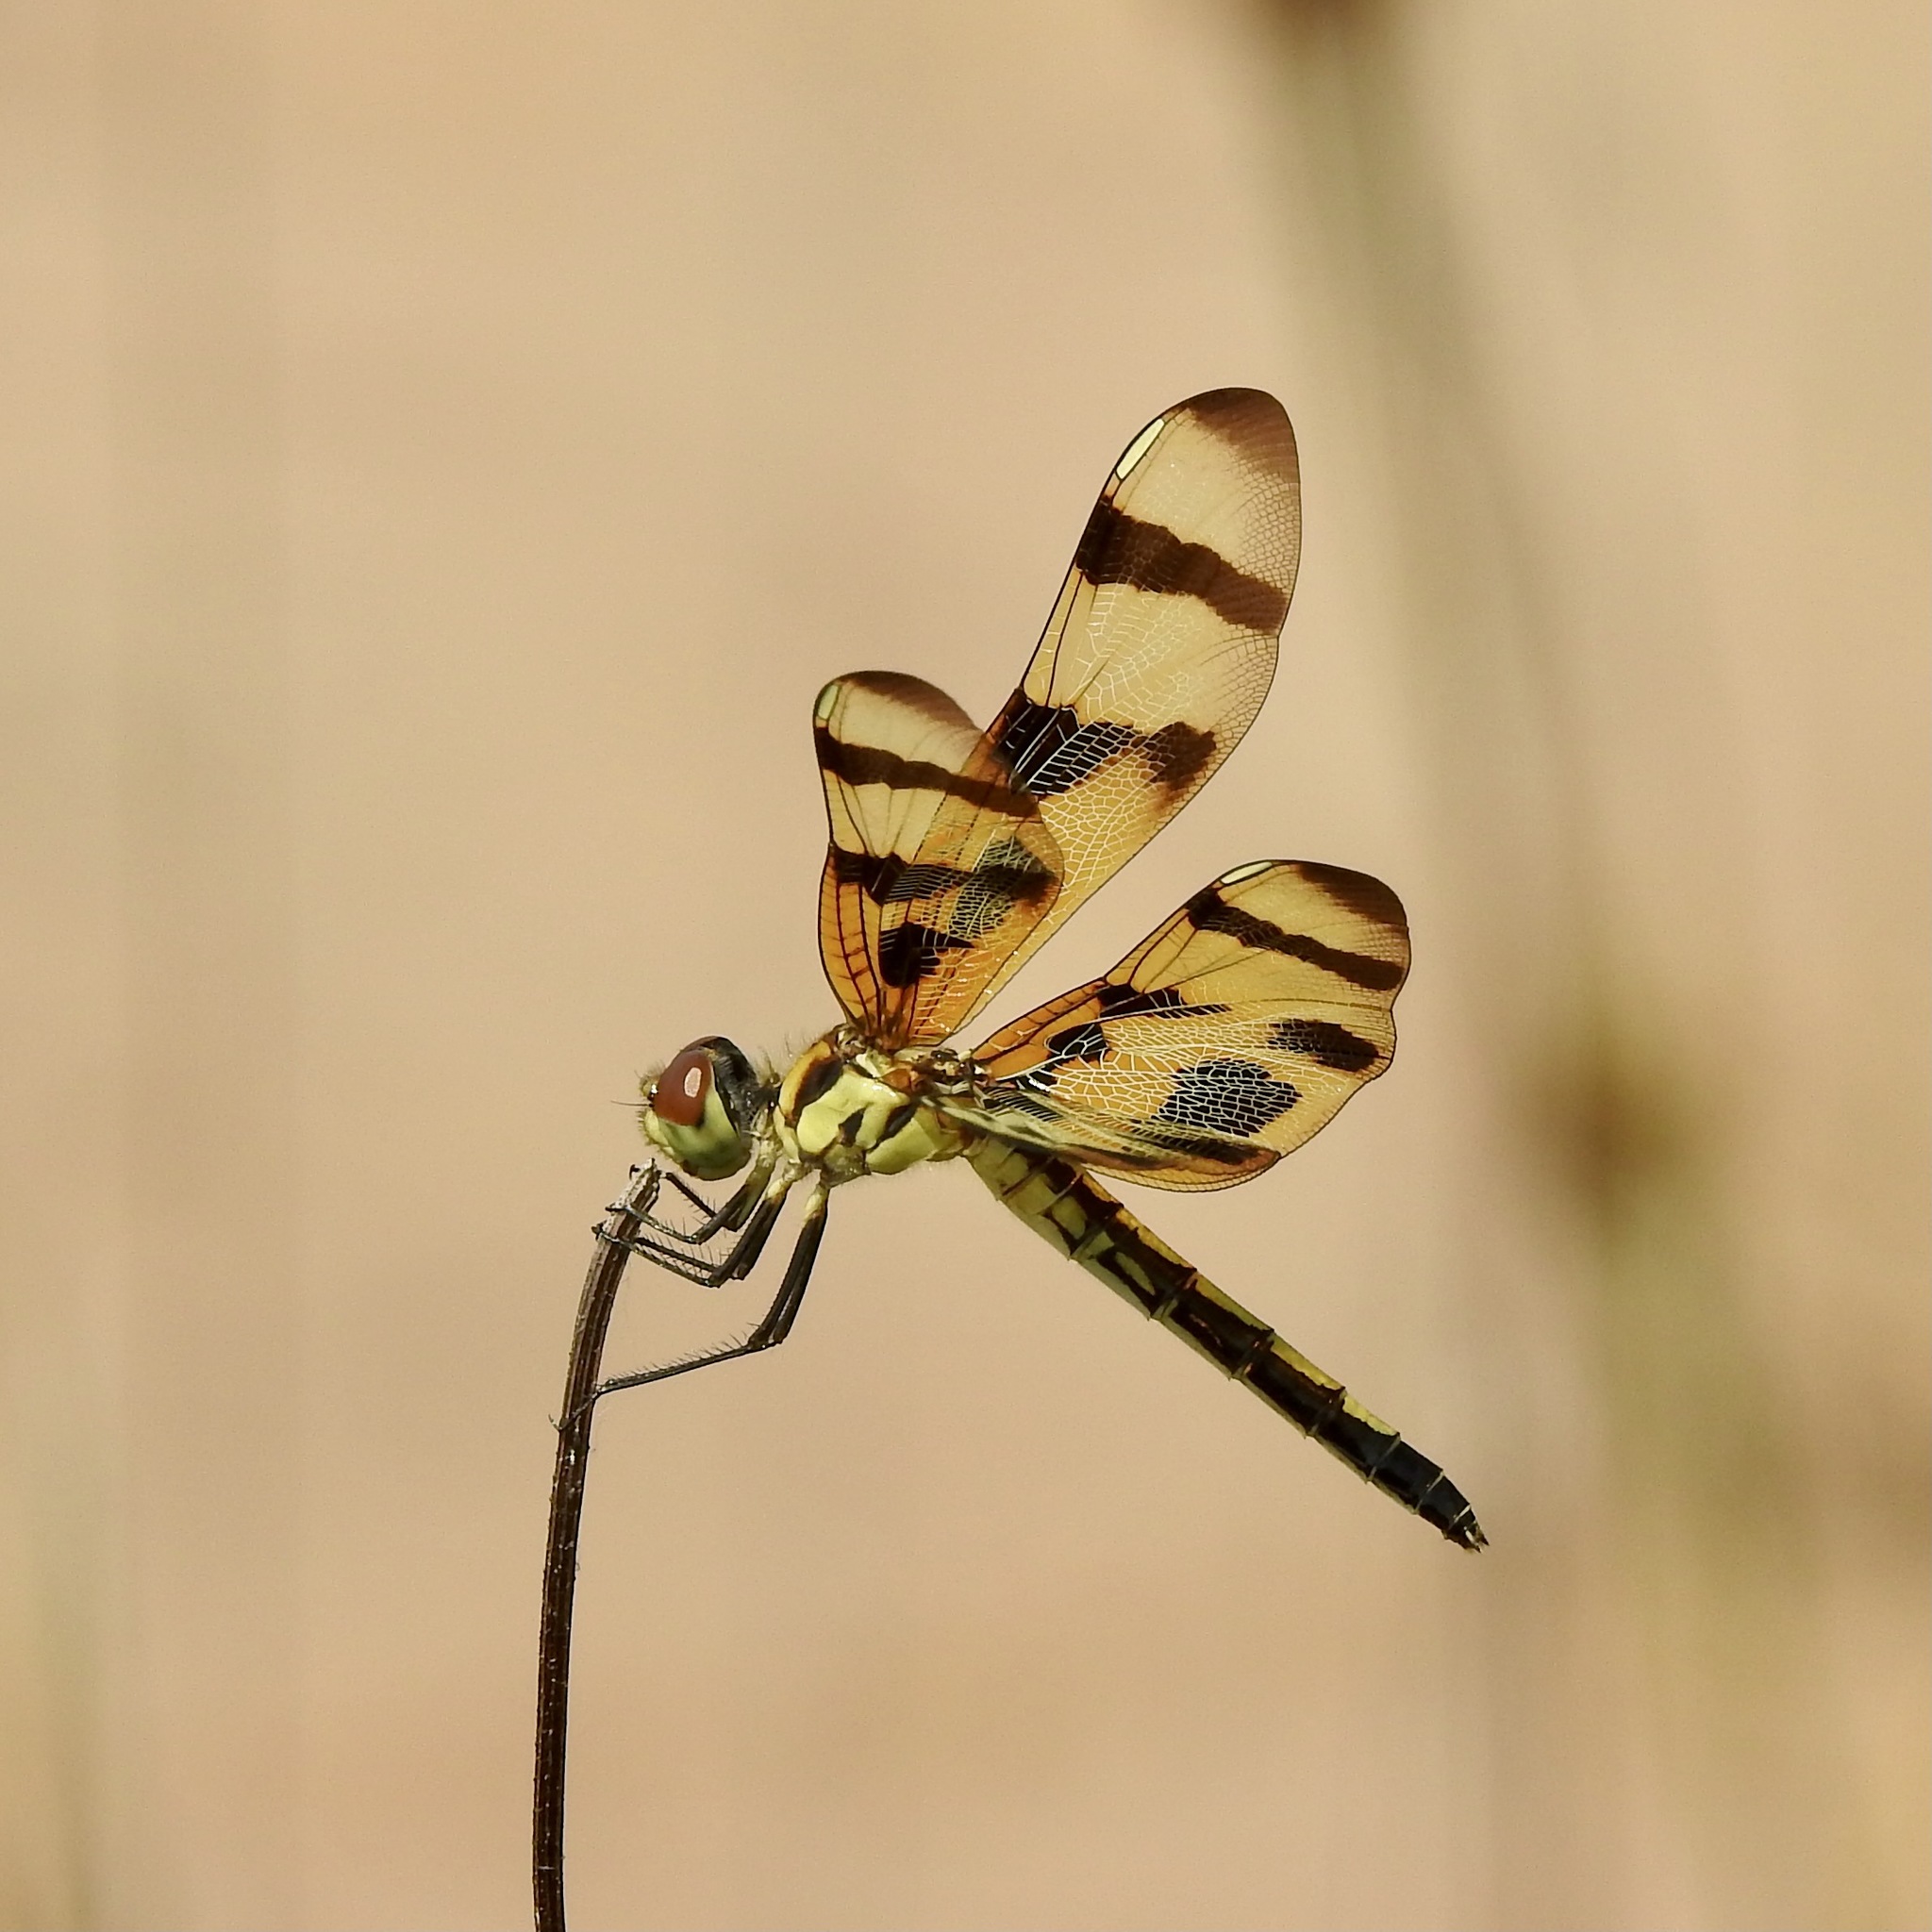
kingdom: Animalia
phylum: Arthropoda
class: Insecta
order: Odonata
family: Libellulidae
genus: Celithemis
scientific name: Celithemis eponina
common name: Halloween pennant
